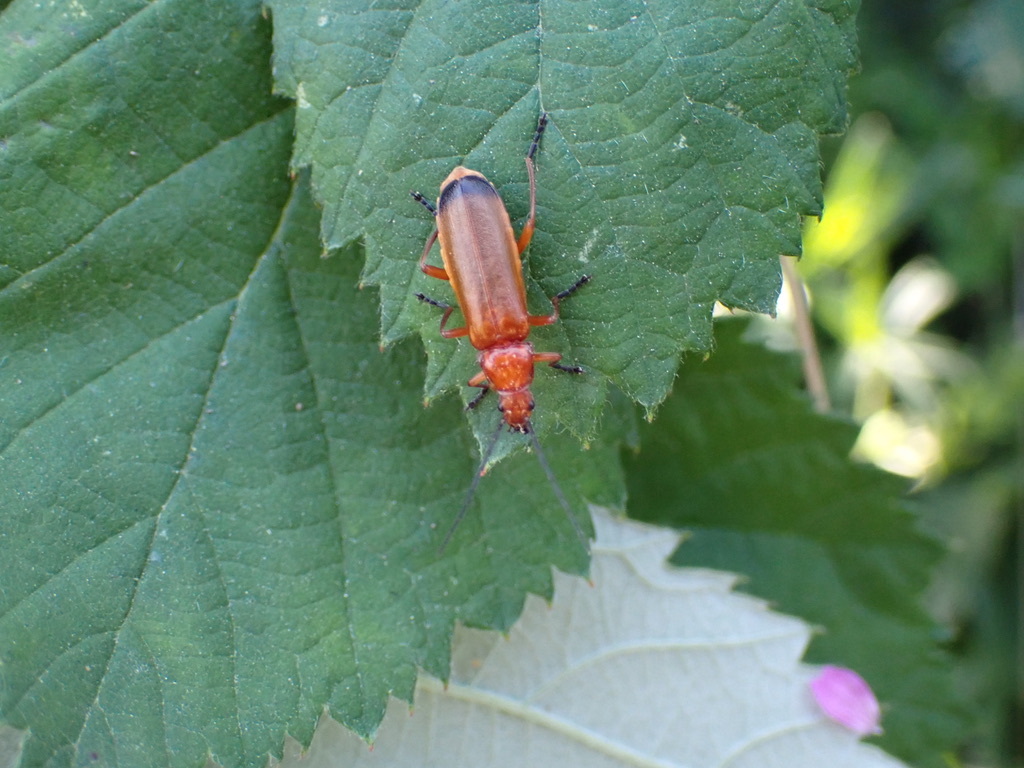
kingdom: Animalia
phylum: Arthropoda
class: Insecta
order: Coleoptera
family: Cantharidae
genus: Rhagonycha
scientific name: Rhagonycha fulva
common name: Common red soldier beetle
